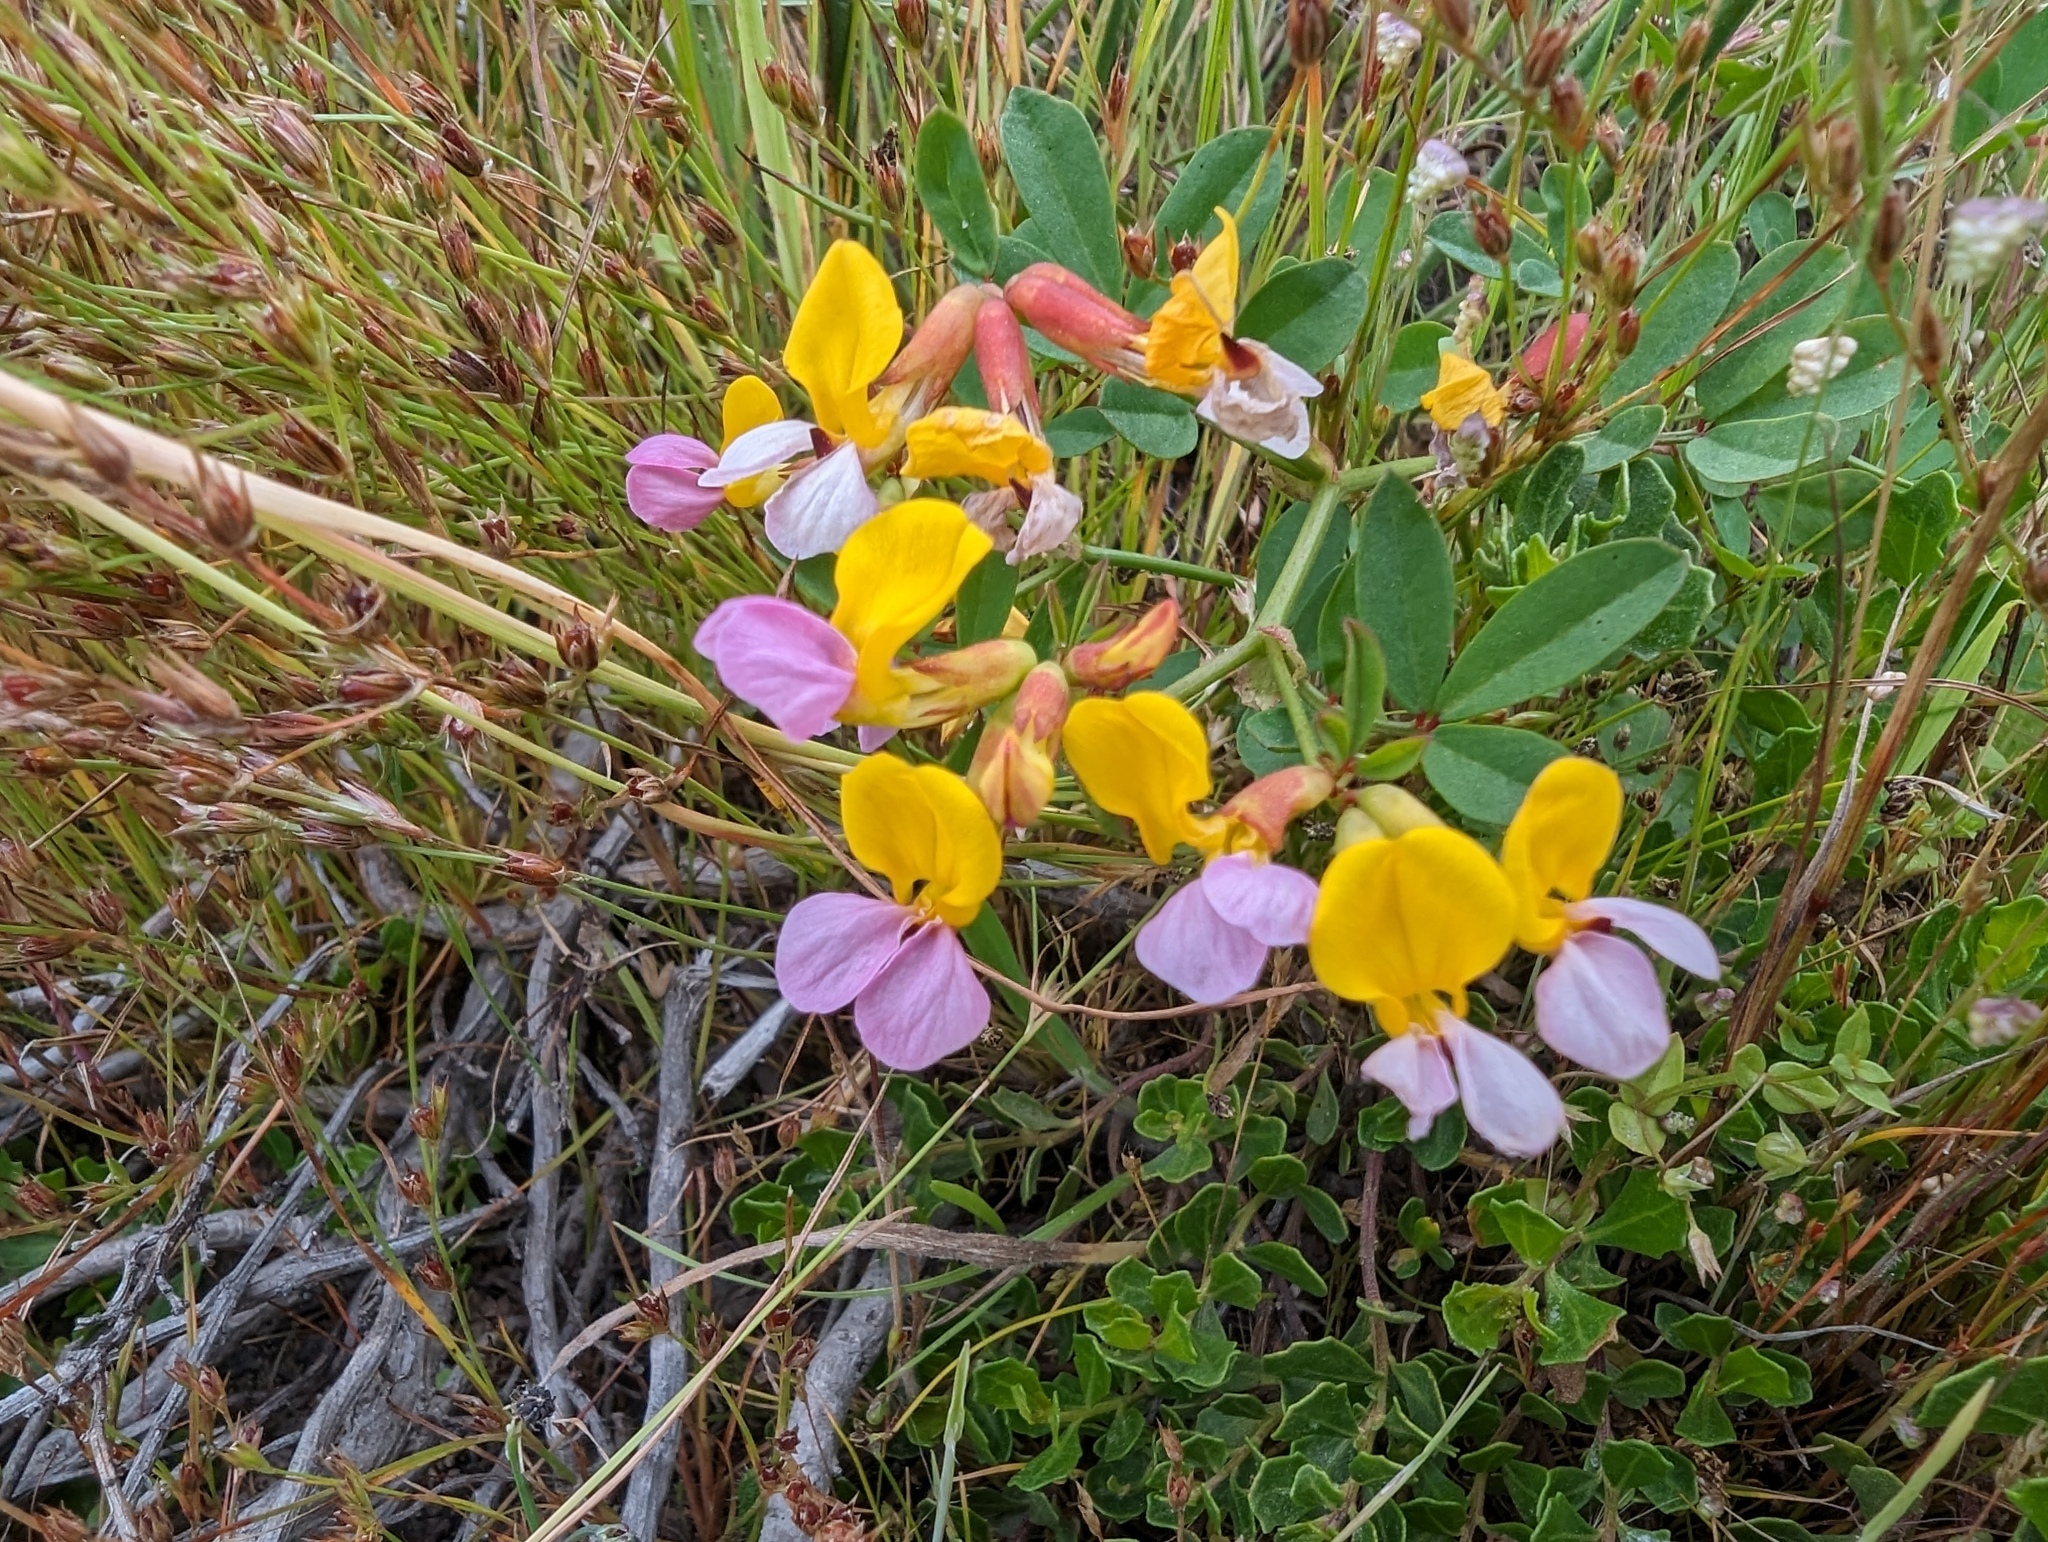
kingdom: Plantae
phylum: Tracheophyta
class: Magnoliopsida
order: Fabales
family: Fabaceae
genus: Hosackia
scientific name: Hosackia gracilis
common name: Seaside bird's-foot lotus
